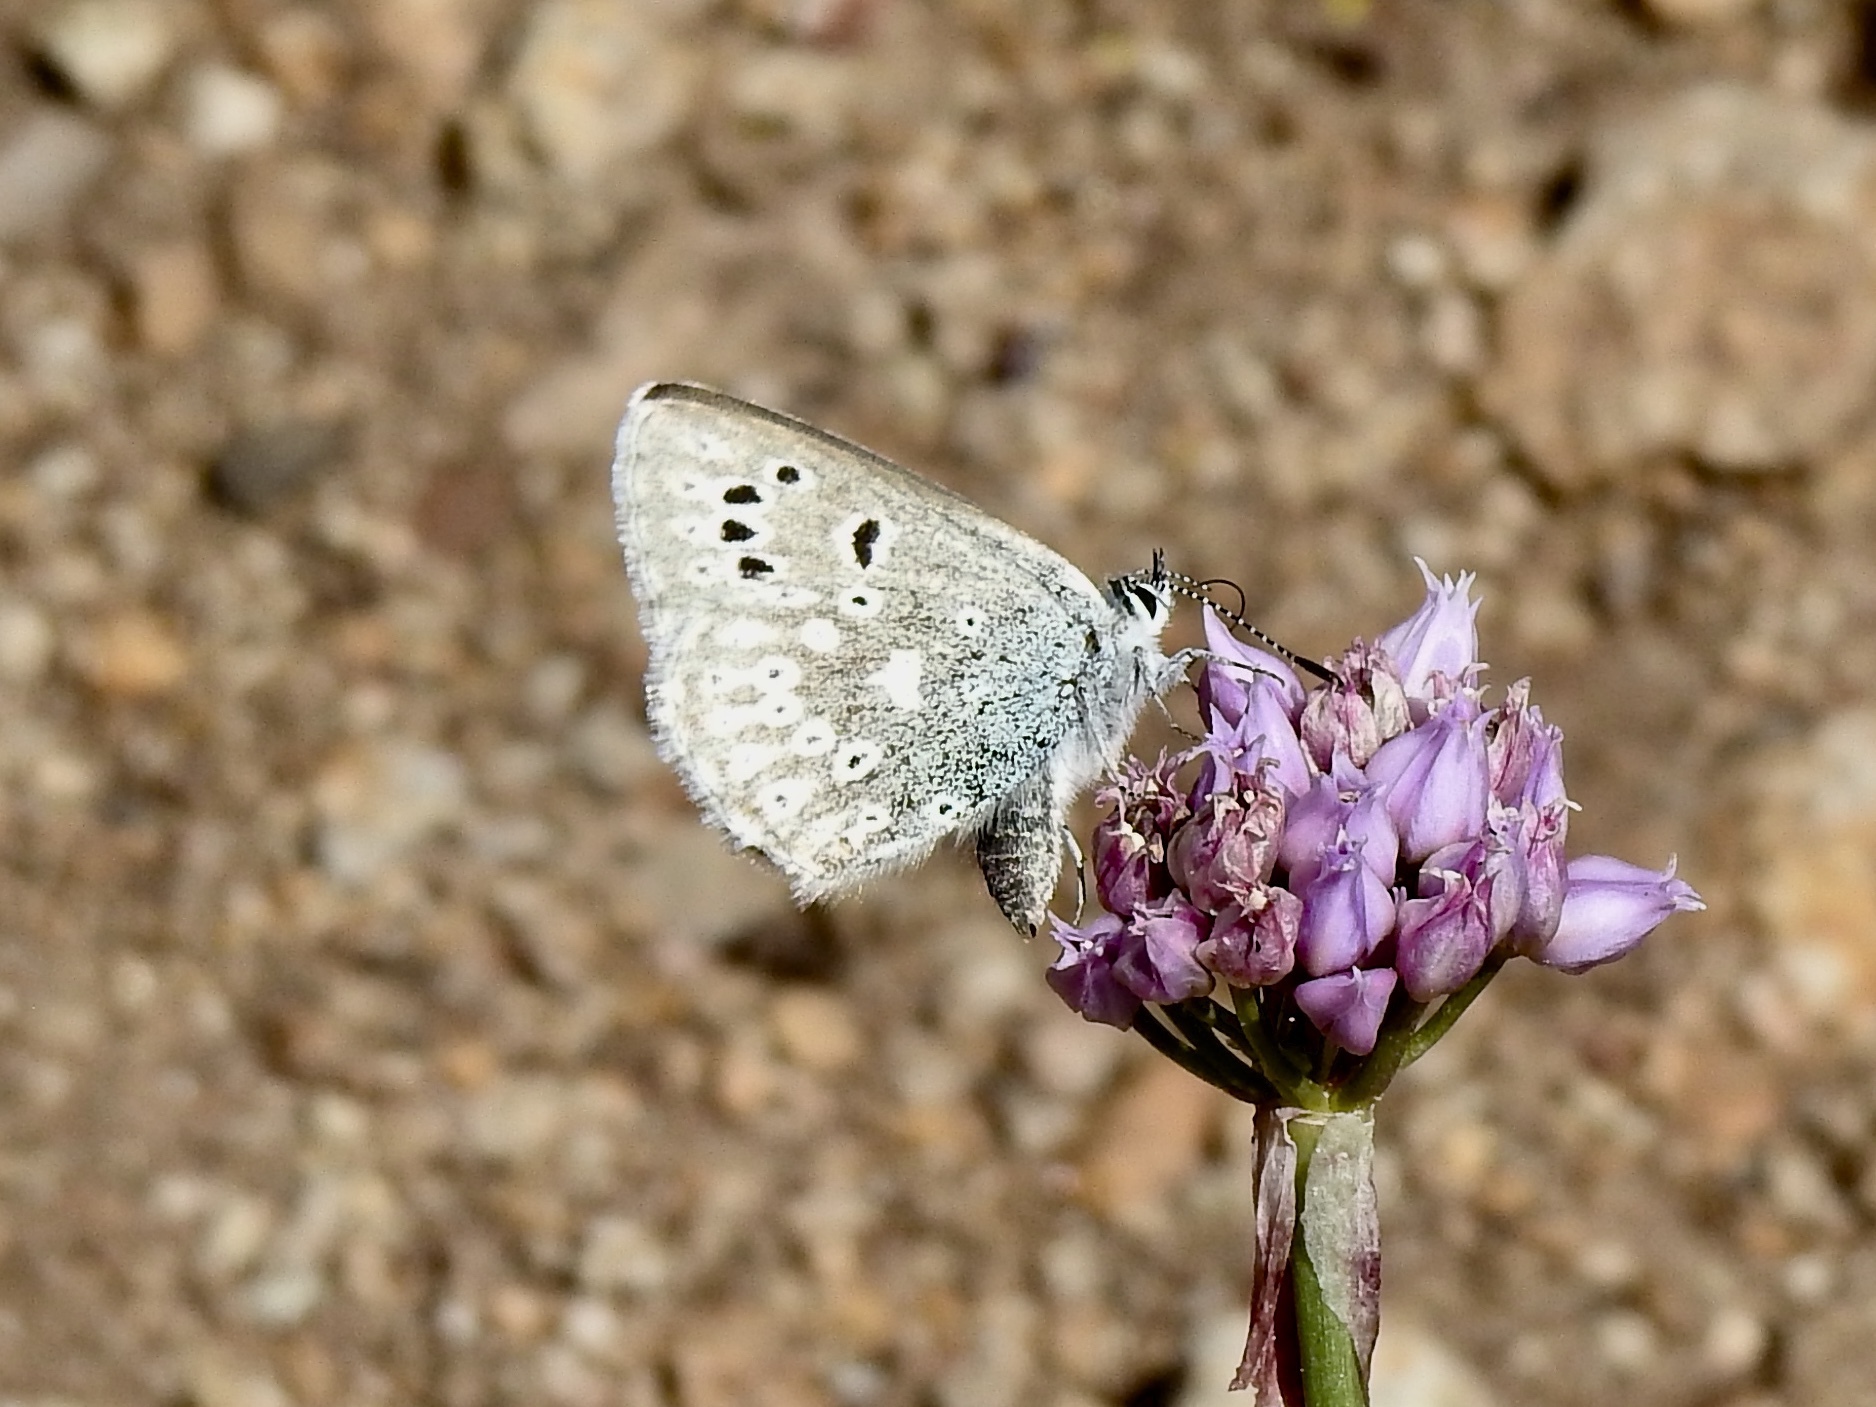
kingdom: Animalia
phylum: Arthropoda
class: Insecta
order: Lepidoptera
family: Lycaenidae
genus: Icaricia
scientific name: Icaricia icarioides
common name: Boisduval's blue
